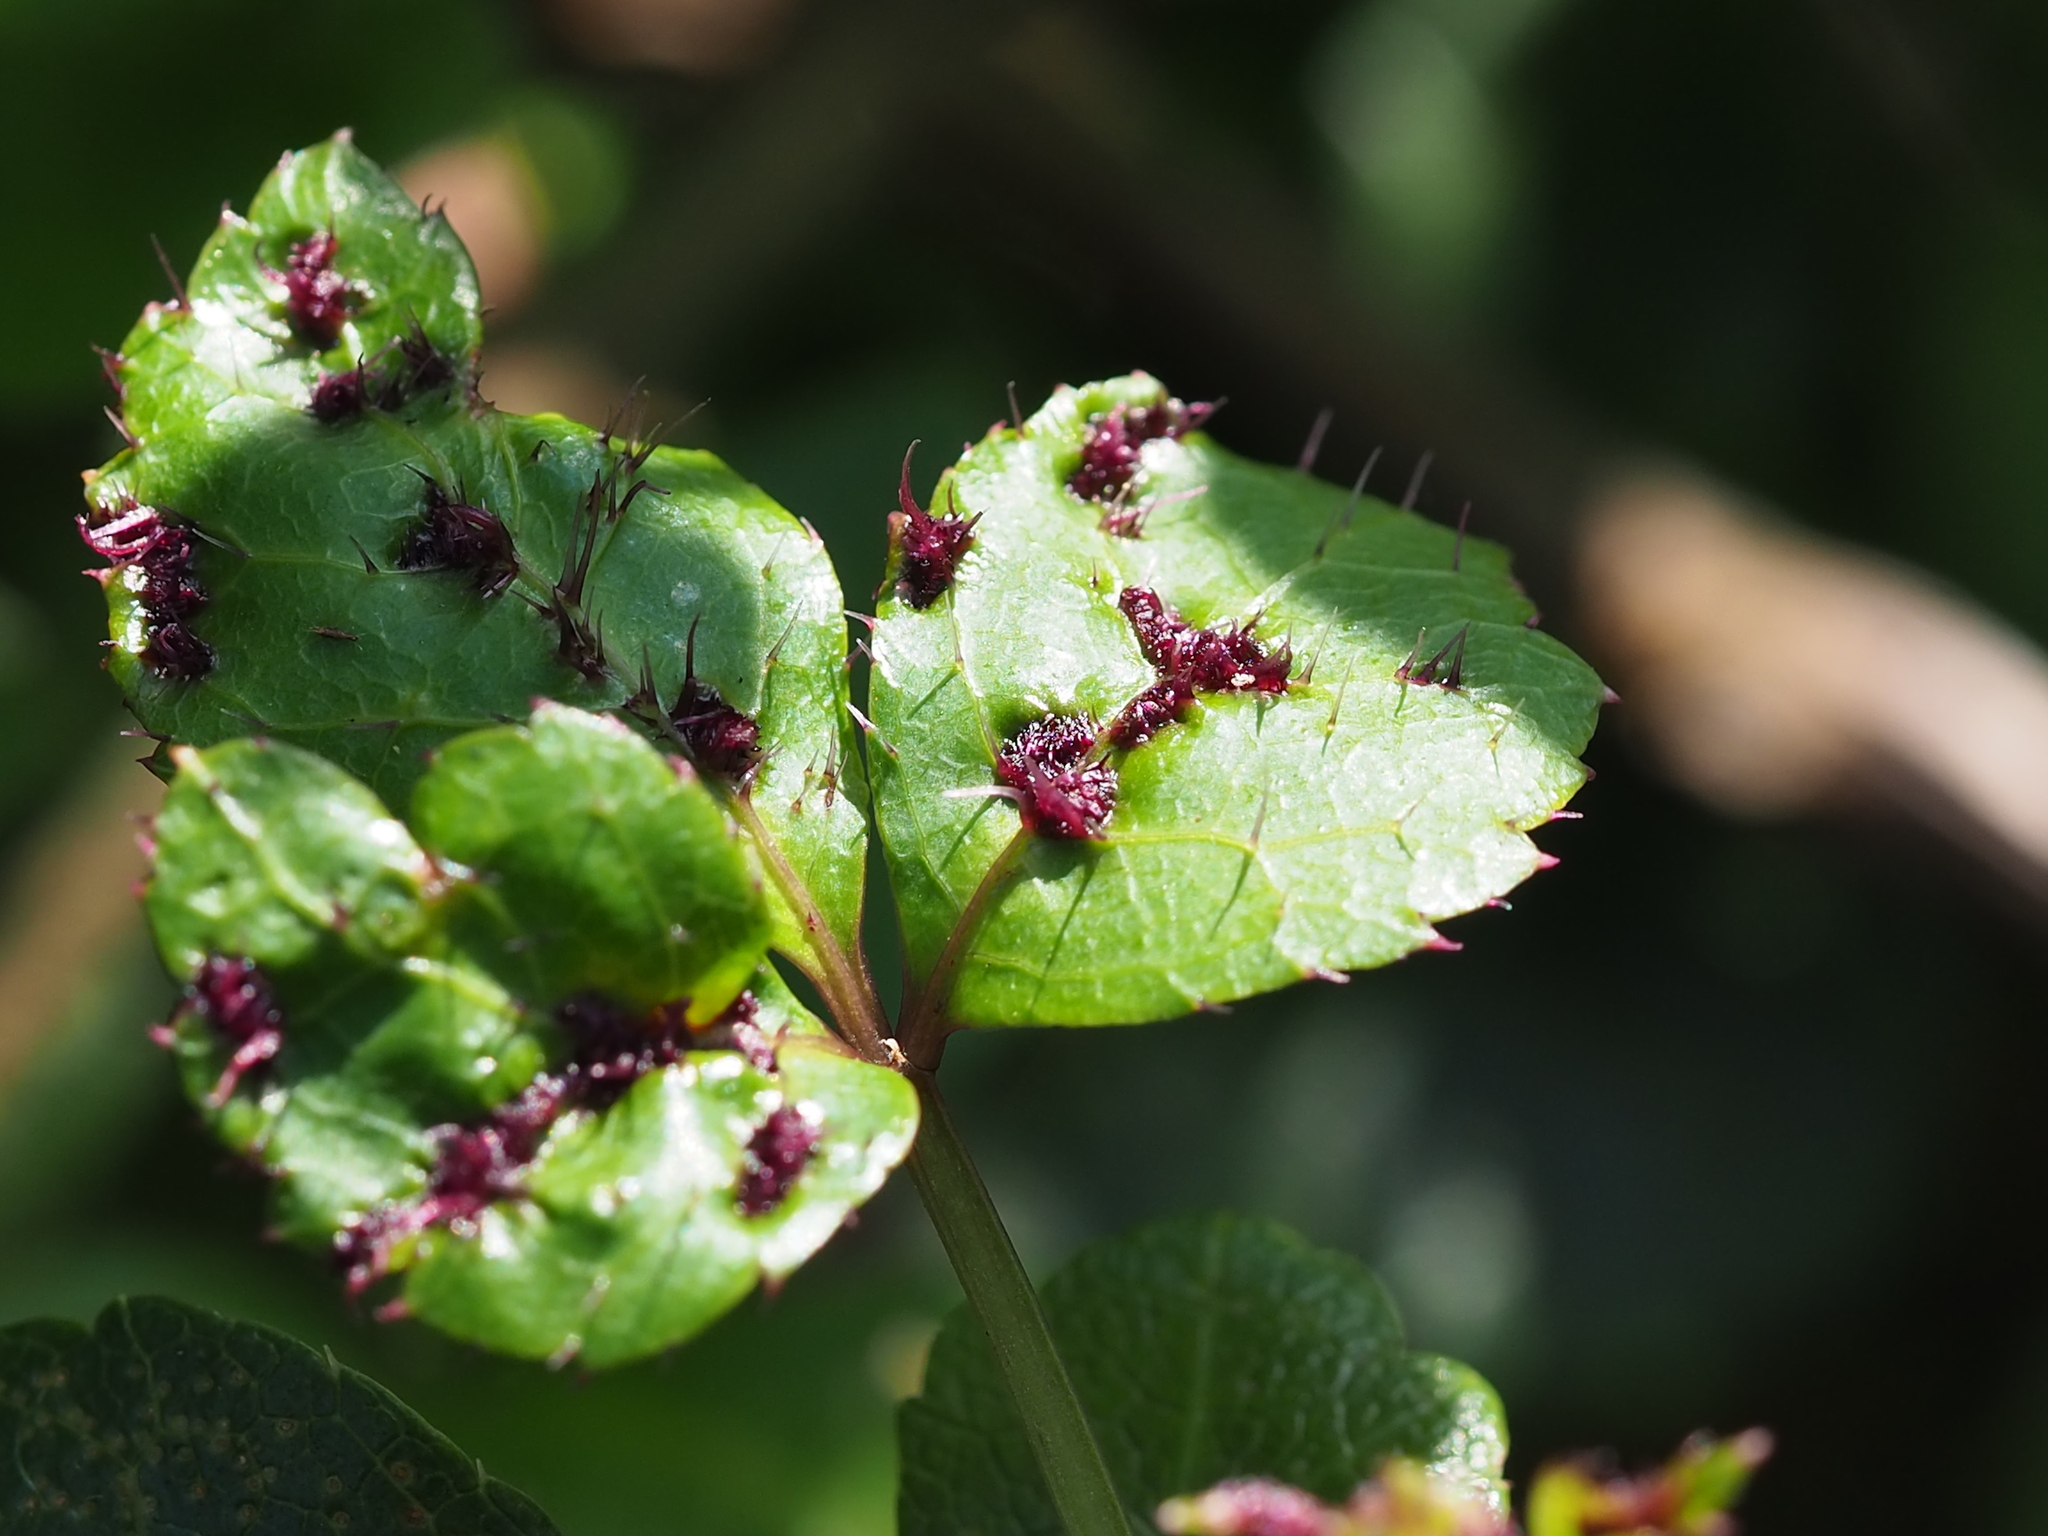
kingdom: Plantae
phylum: Tracheophyta
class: Magnoliopsida
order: Apiales
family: Araliaceae
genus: Eleutherococcus
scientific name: Eleutherococcus setosus
